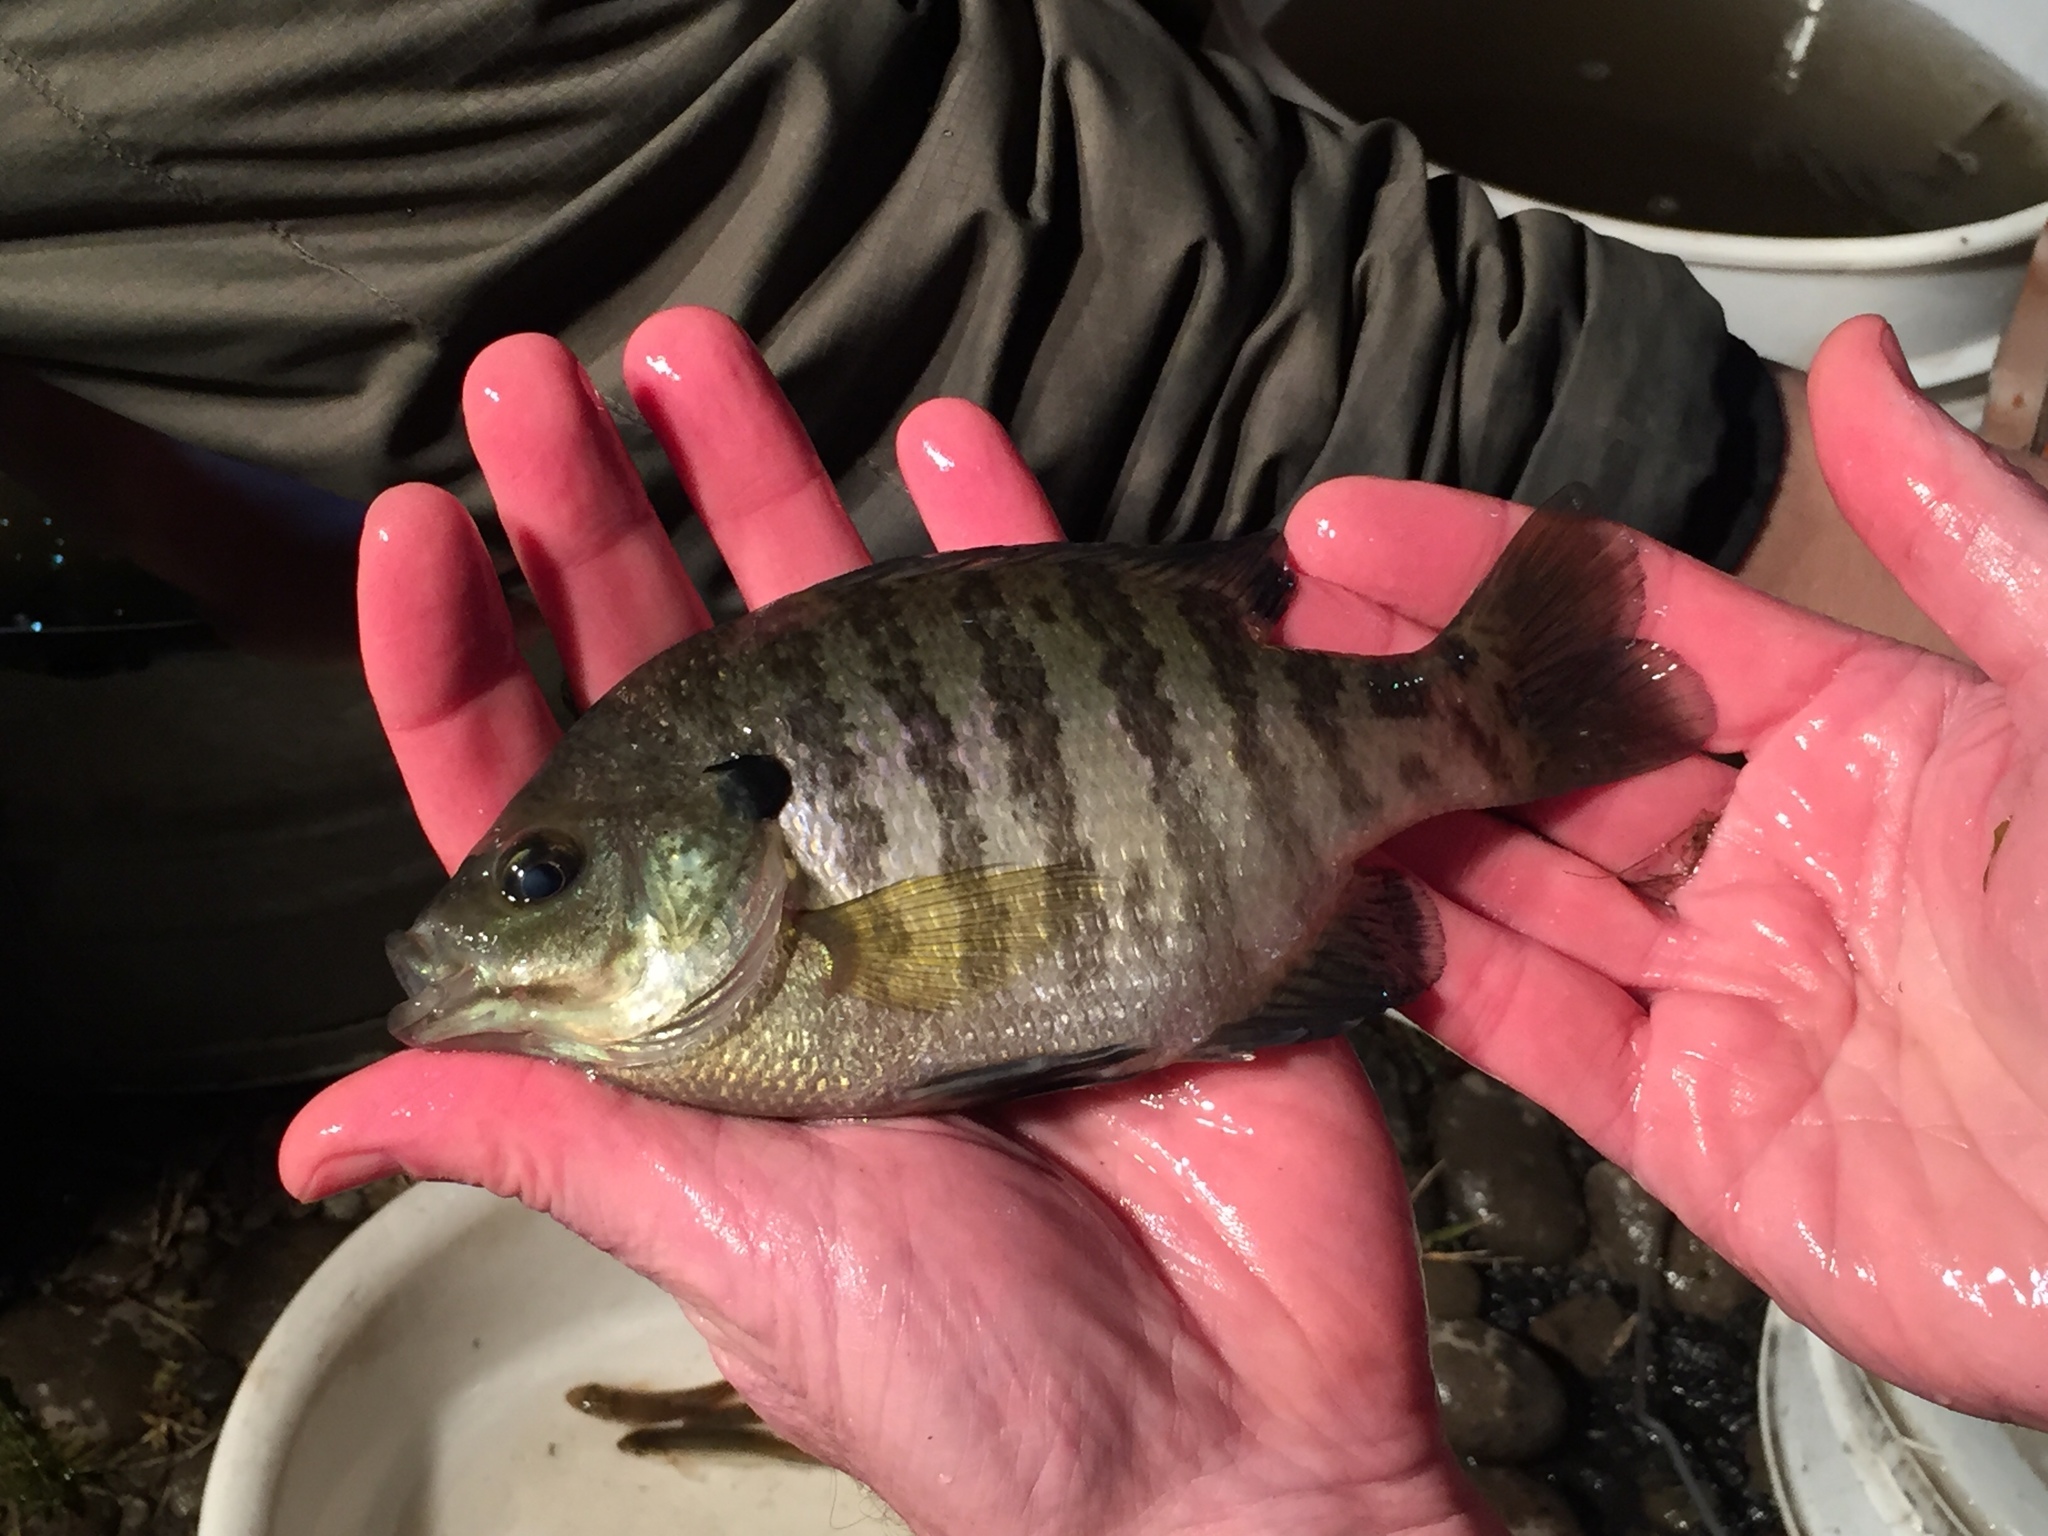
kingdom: Animalia
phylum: Chordata
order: Perciformes
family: Centrarchidae
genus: Lepomis
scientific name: Lepomis macrochirus
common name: Bluegill
